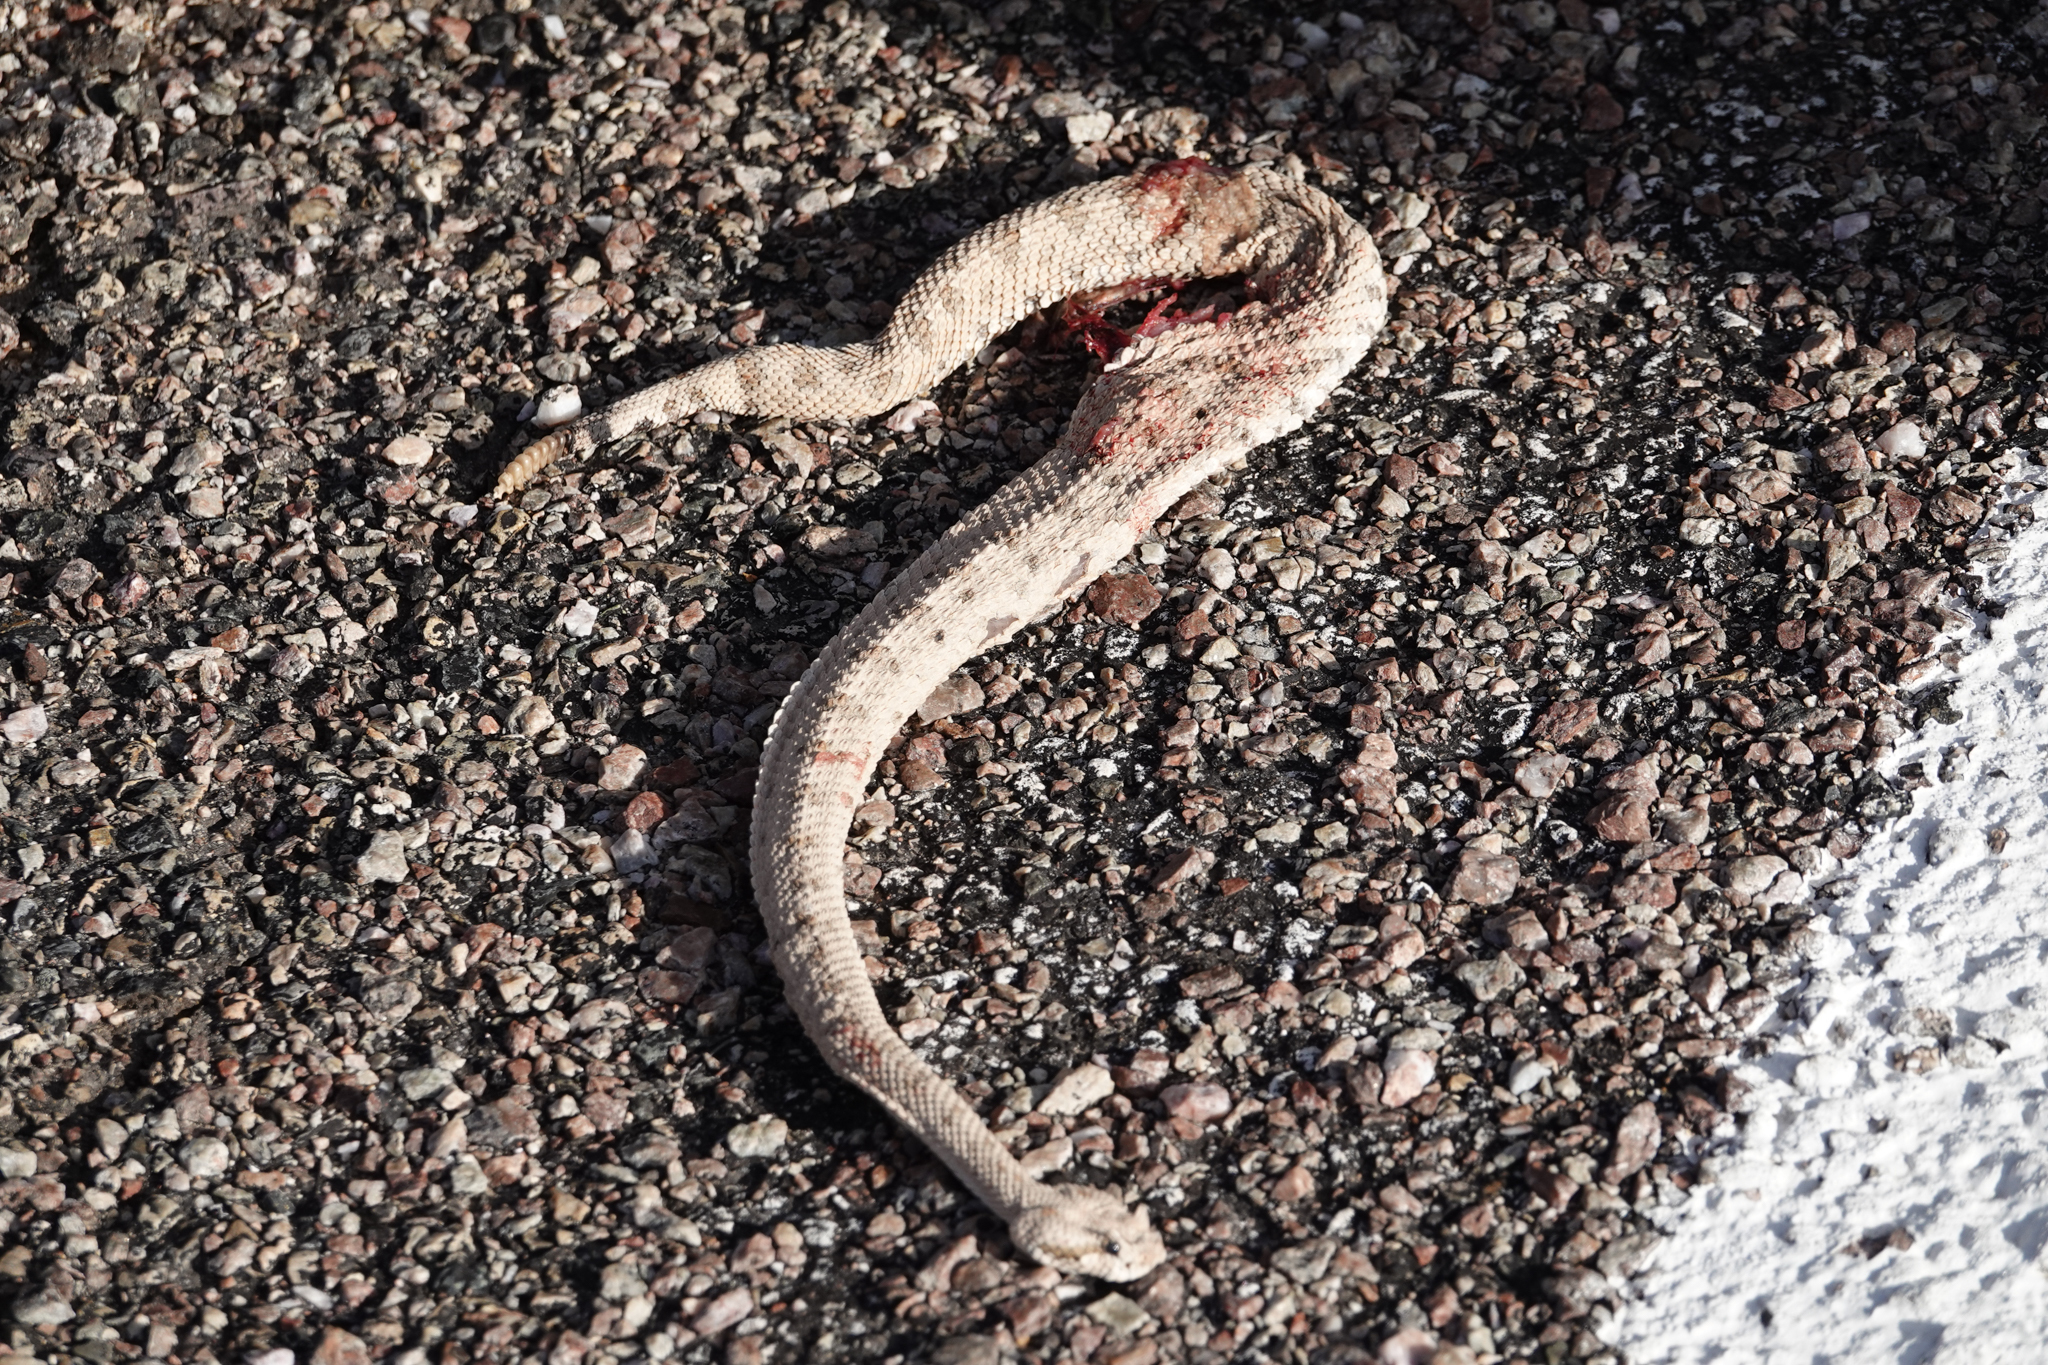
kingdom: Animalia
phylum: Chordata
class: Squamata
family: Viperidae
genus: Crotalus
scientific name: Crotalus cerastes
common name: Sidewinder
